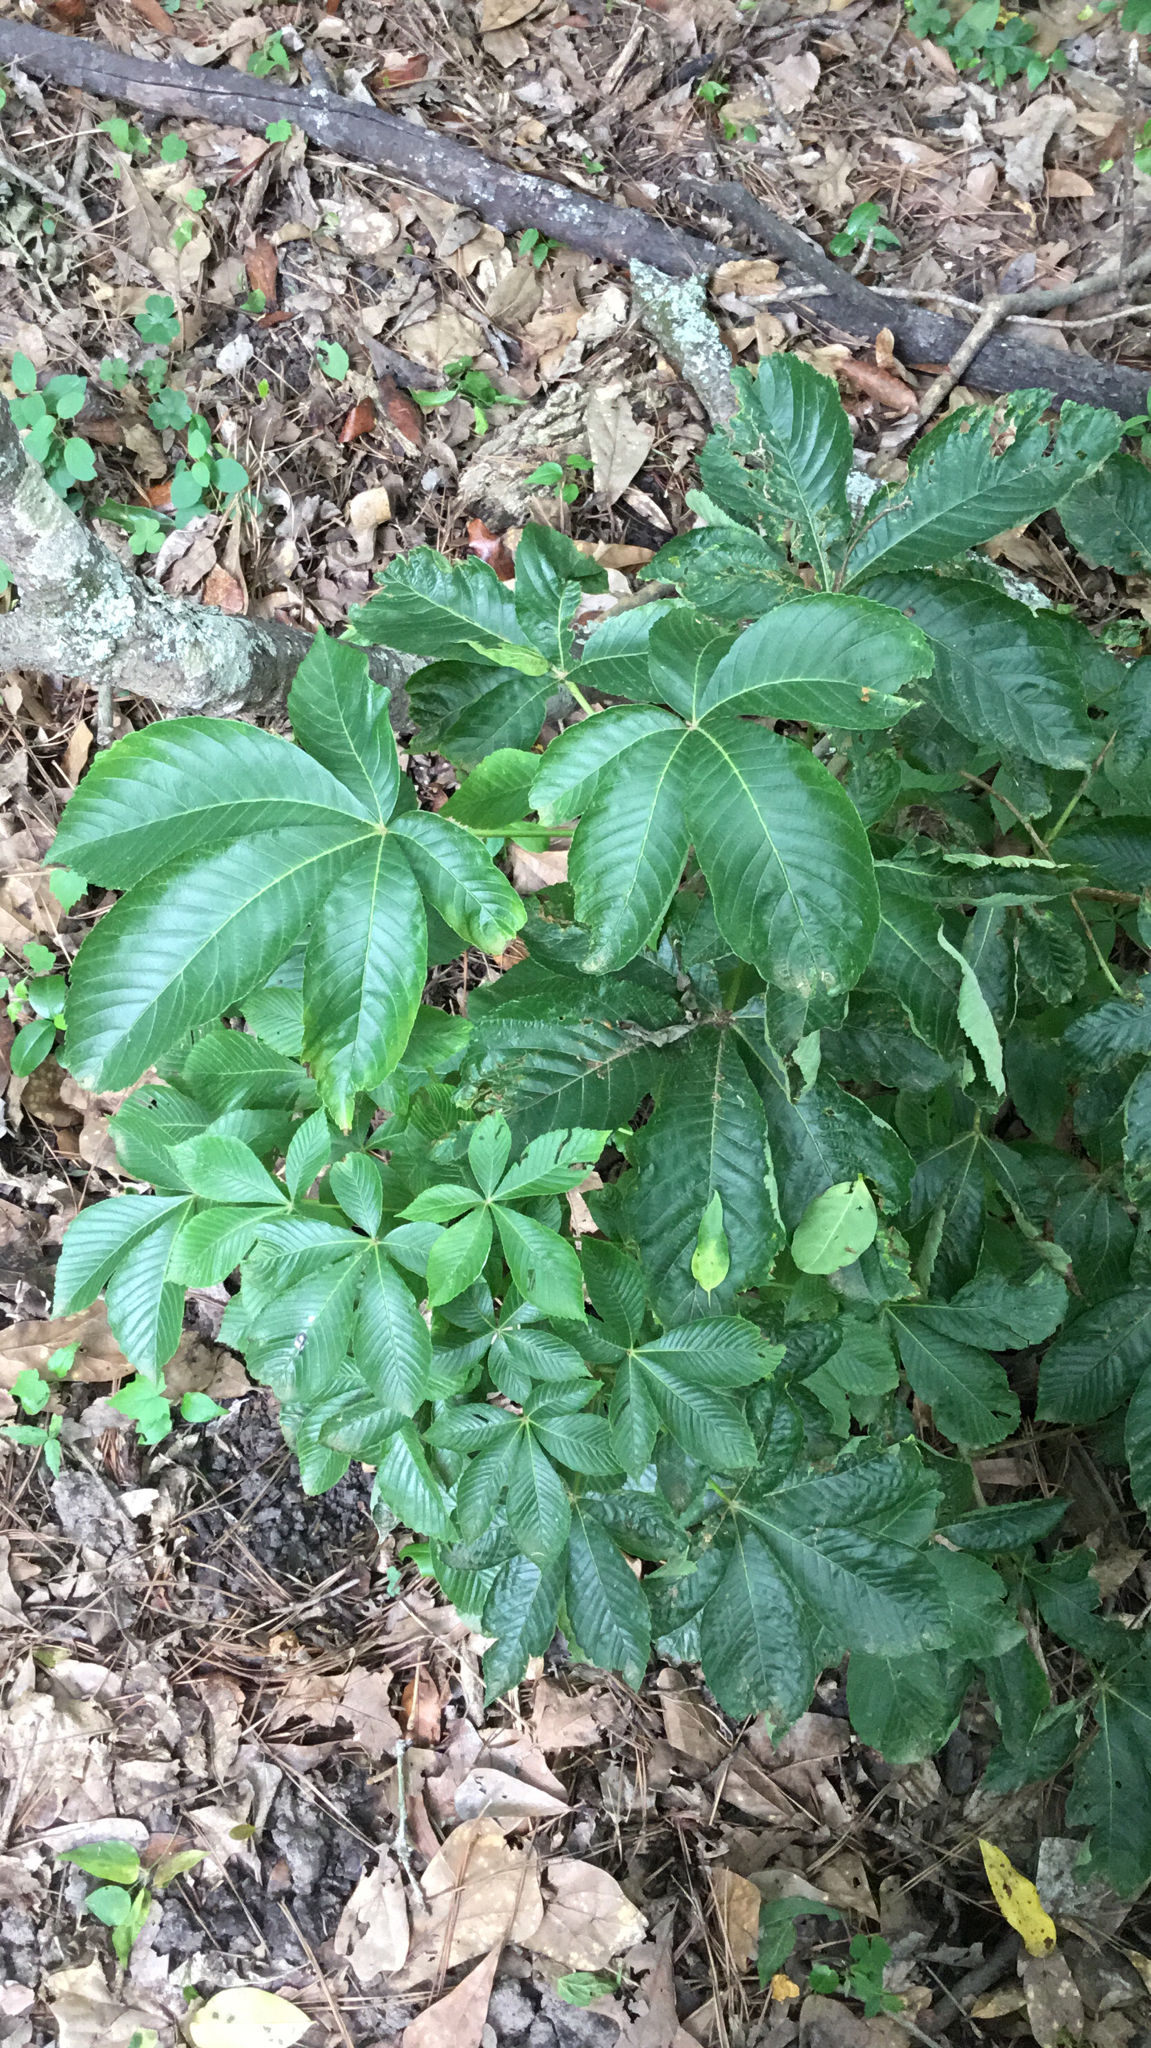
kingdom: Plantae
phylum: Tracheophyta
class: Magnoliopsida
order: Sapindales
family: Sapindaceae
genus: Aesculus
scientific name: Aesculus pavia
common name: Red buckeye
